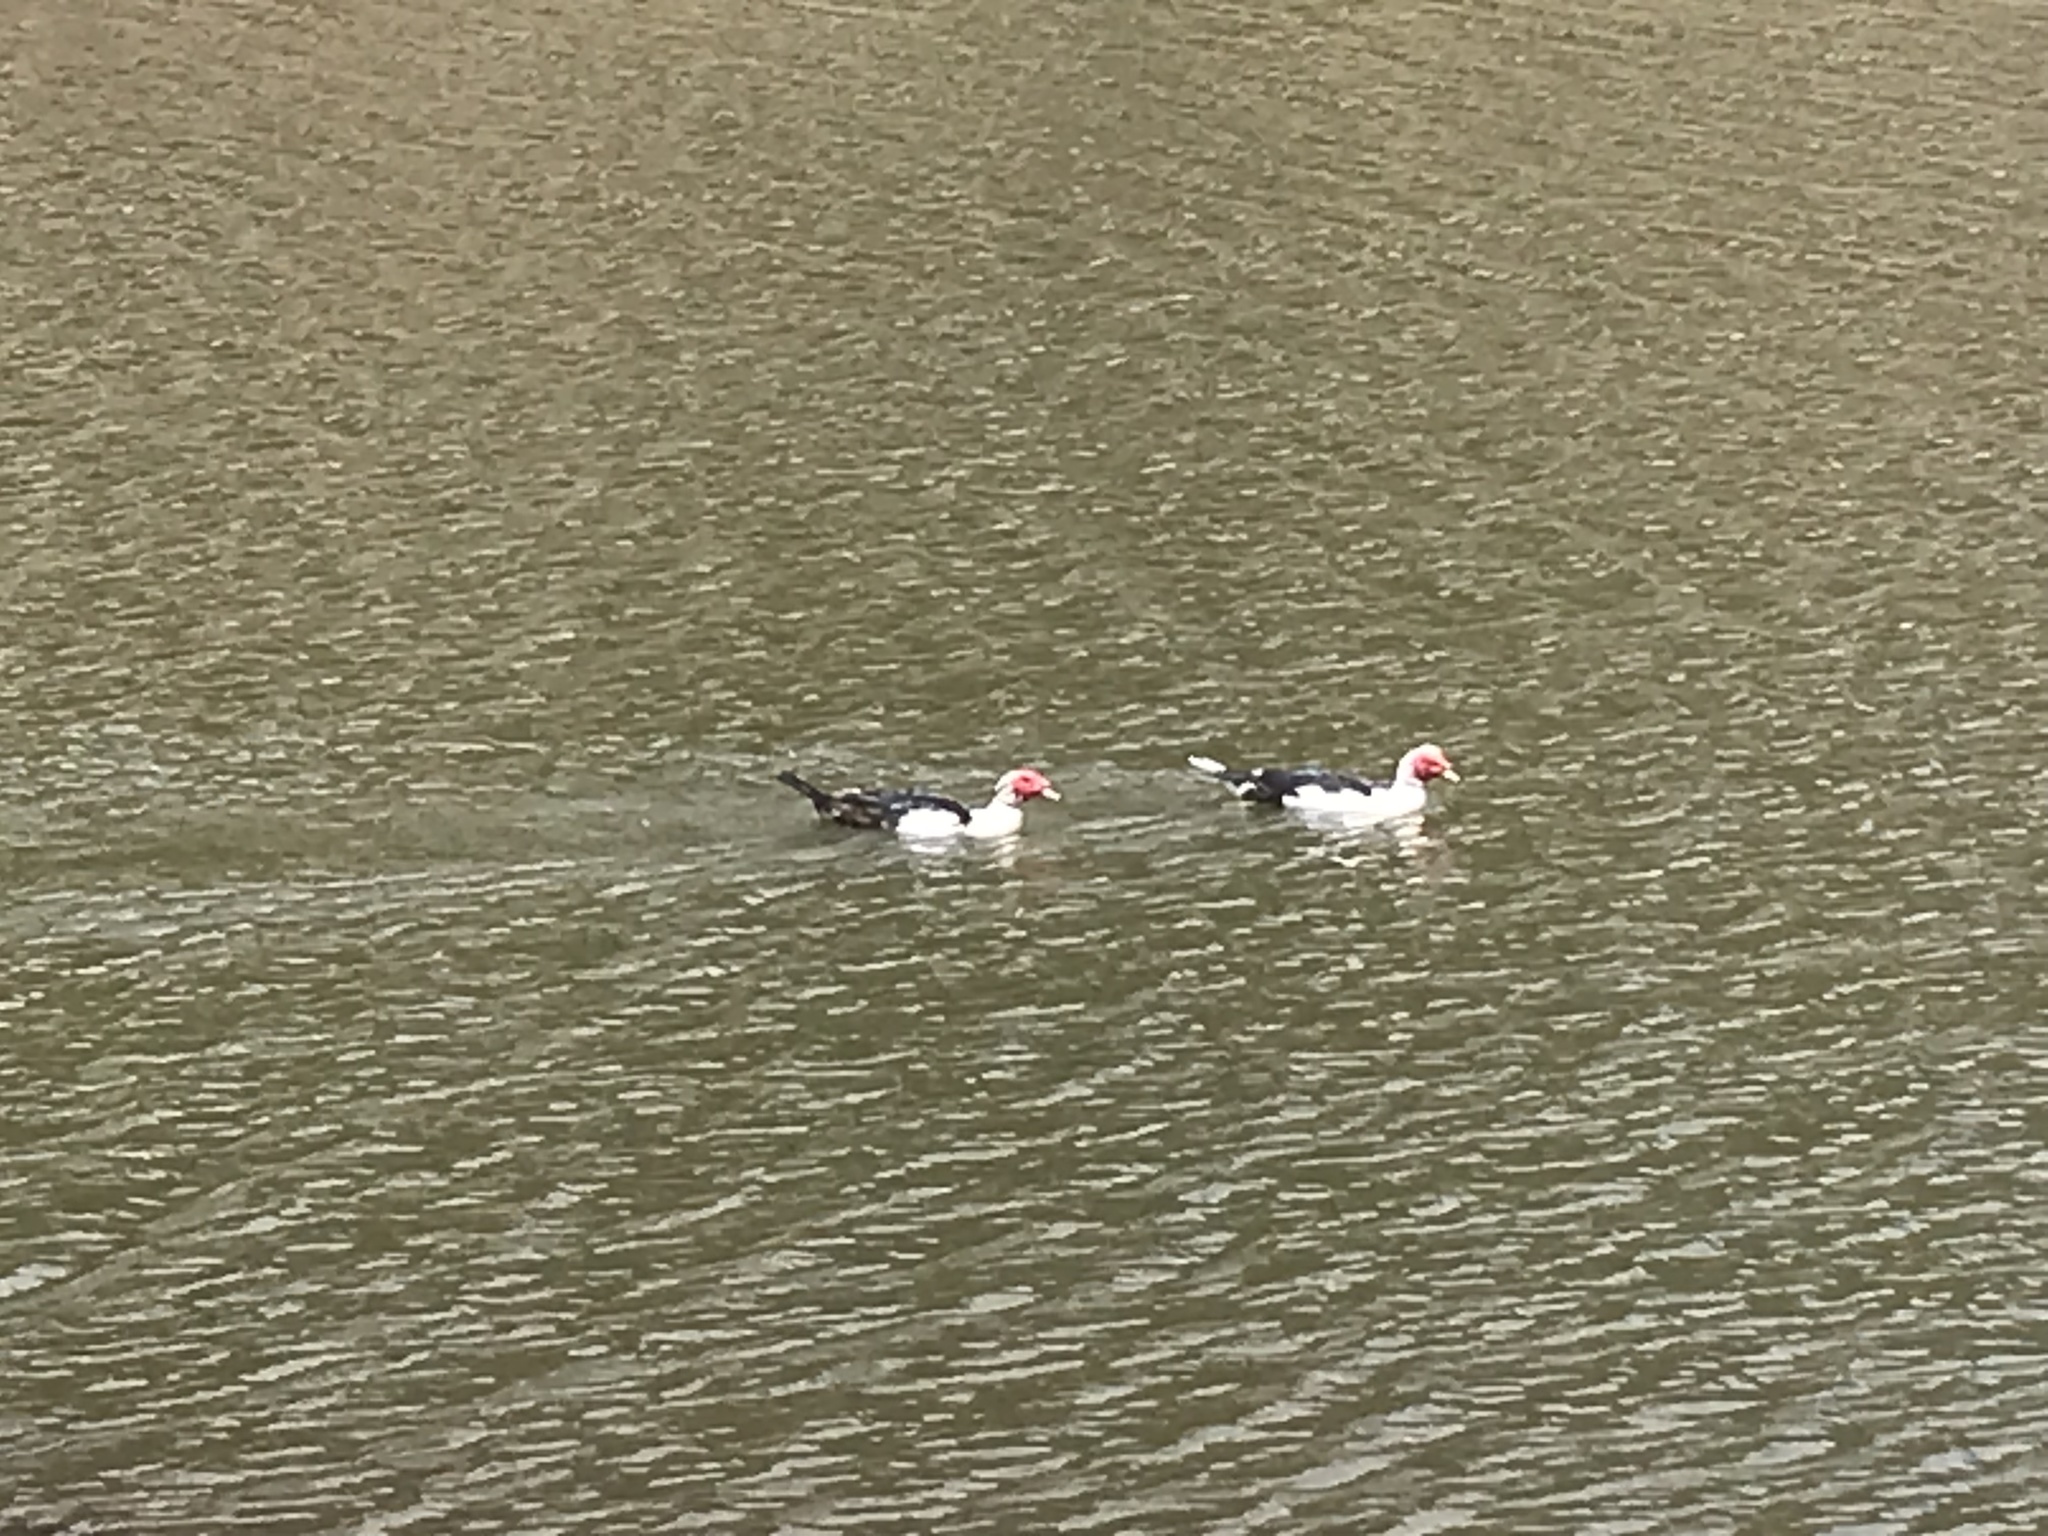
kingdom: Animalia
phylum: Chordata
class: Aves
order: Anseriformes
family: Anatidae
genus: Cairina
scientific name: Cairina moschata
